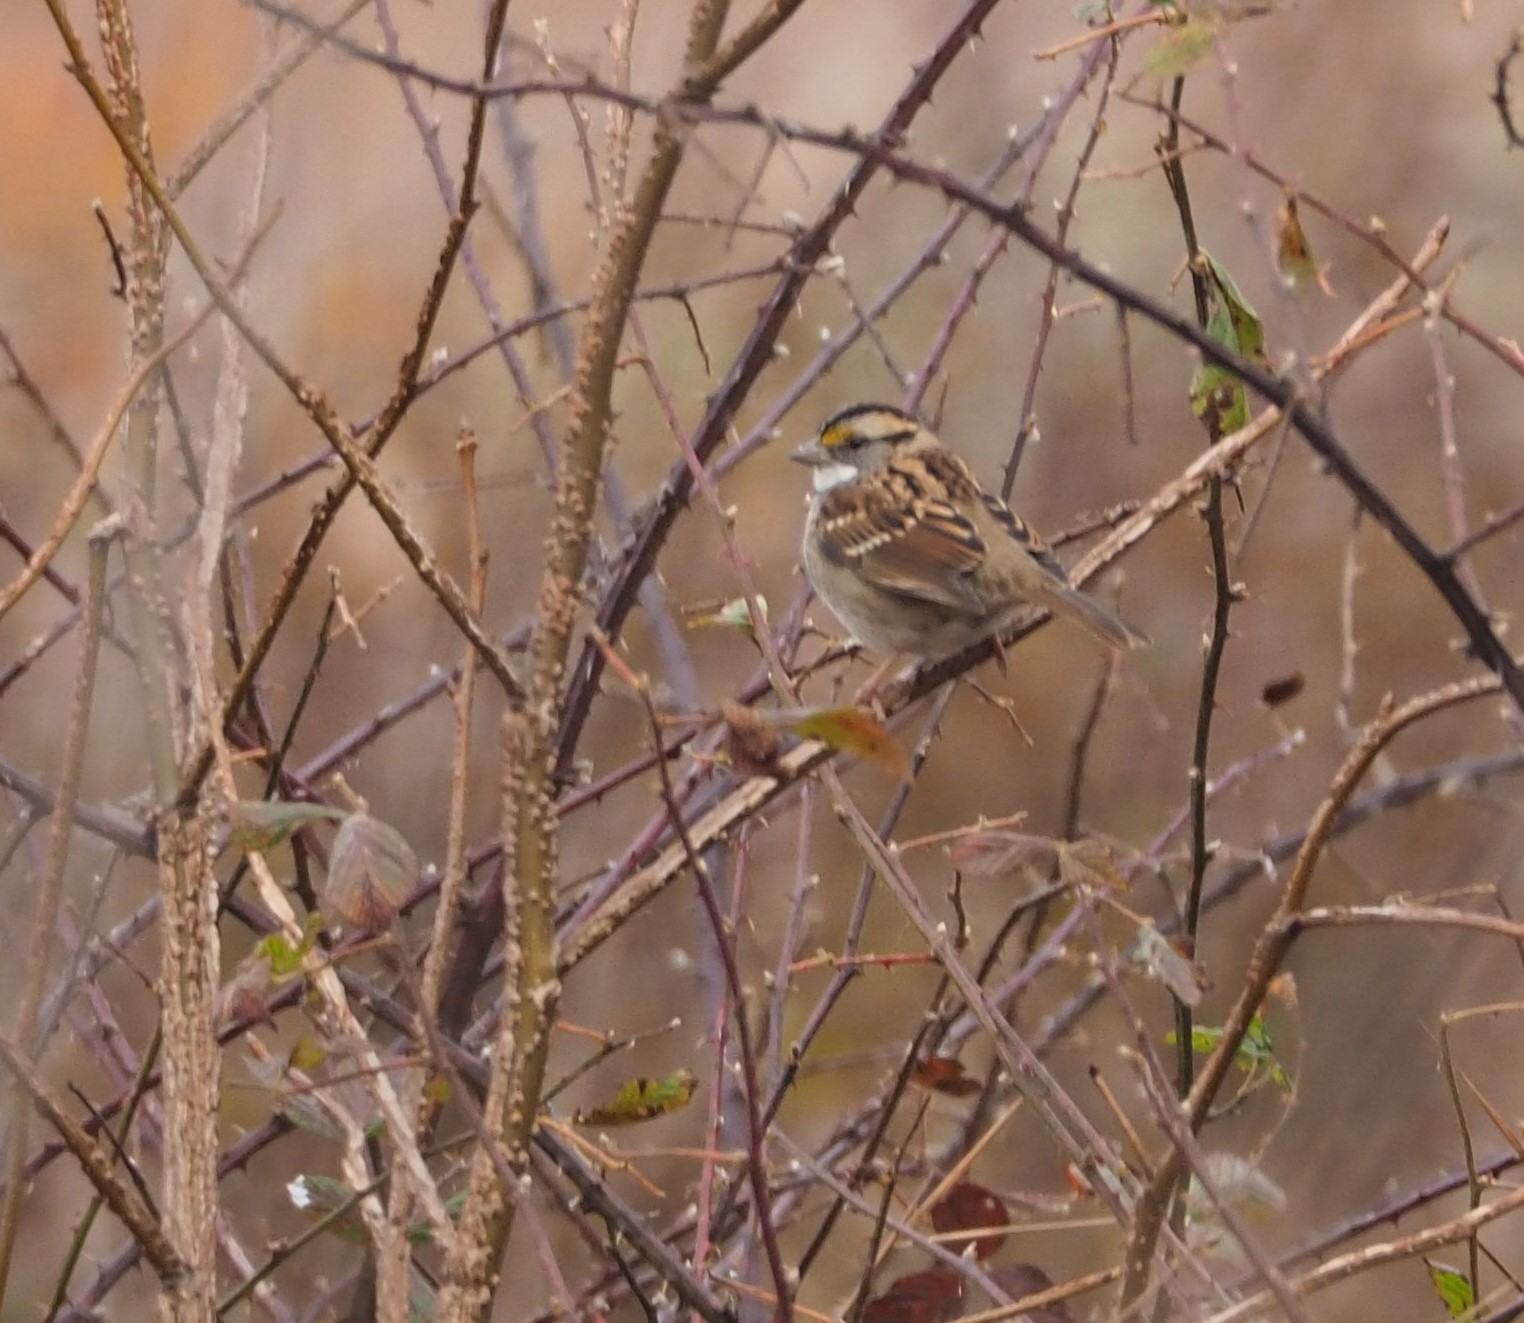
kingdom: Animalia
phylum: Chordata
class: Aves
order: Passeriformes
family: Passerellidae
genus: Zonotrichia
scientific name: Zonotrichia albicollis
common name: White-throated sparrow
